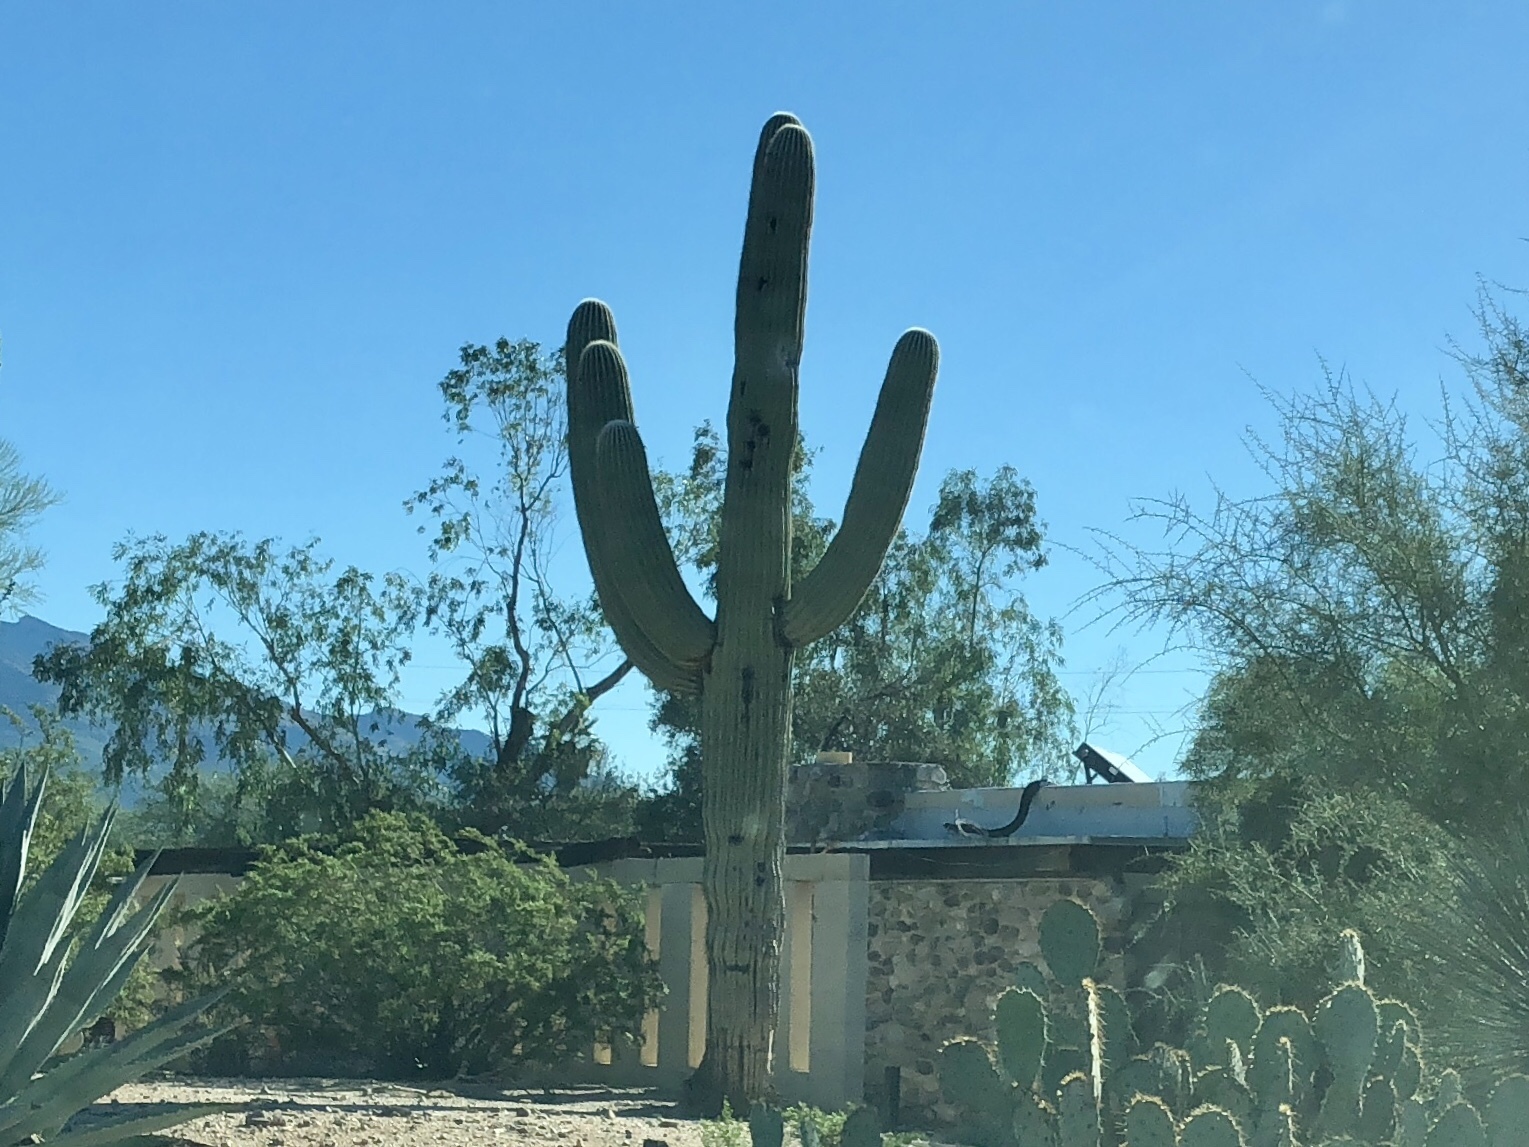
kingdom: Plantae
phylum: Tracheophyta
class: Magnoliopsida
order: Caryophyllales
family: Cactaceae
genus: Carnegiea
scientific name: Carnegiea gigantea
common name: Saguaro
